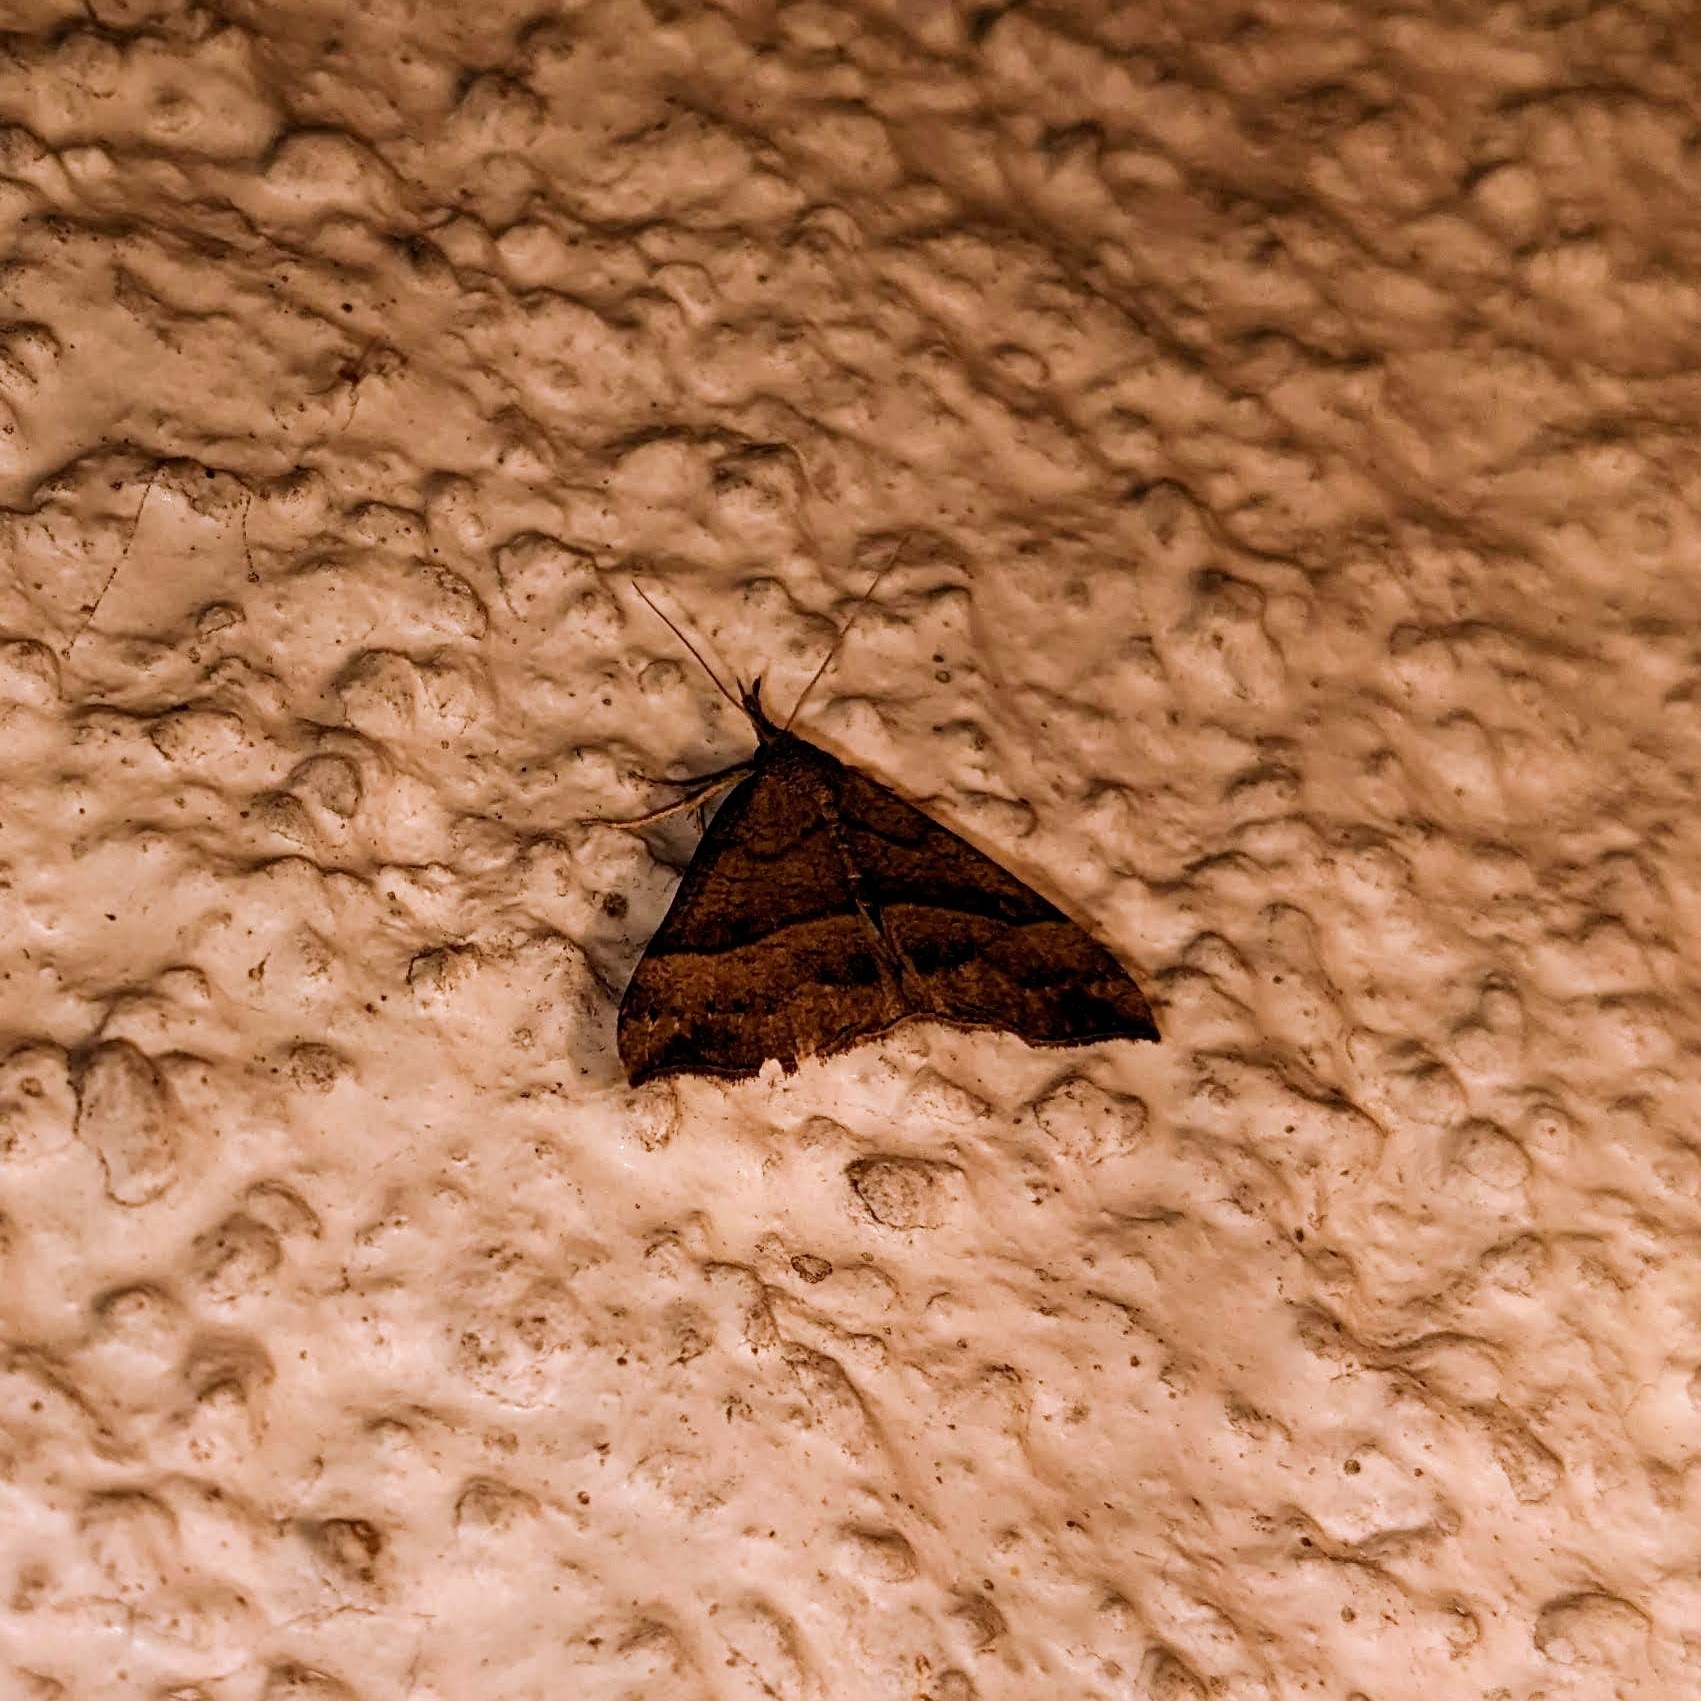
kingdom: Animalia
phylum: Arthropoda
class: Insecta
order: Lepidoptera
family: Erebidae
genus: Hypena
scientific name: Hypena proboscidalis
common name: Snout
